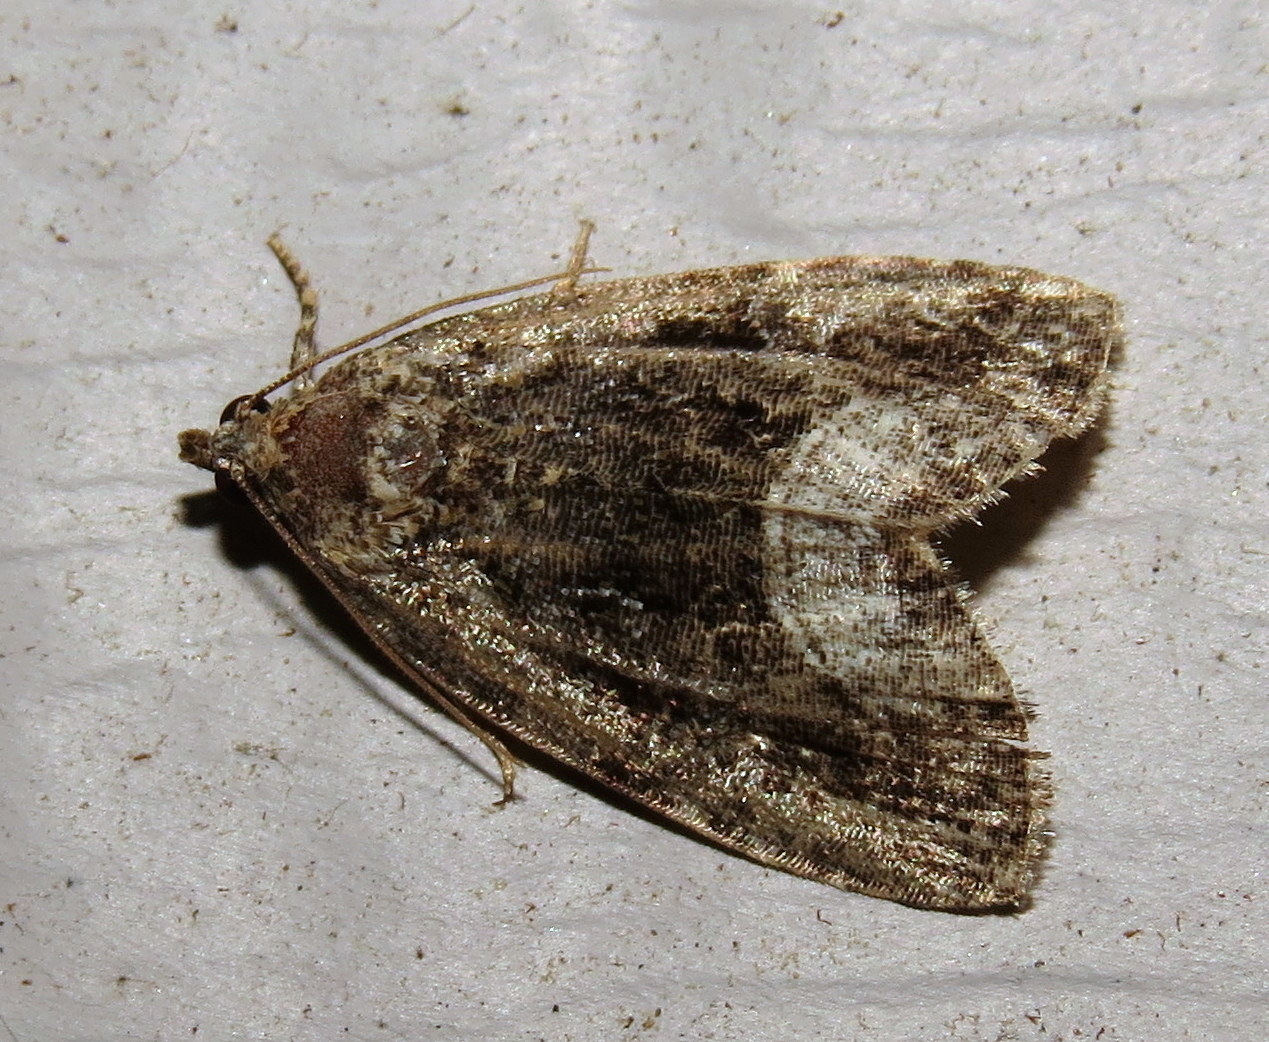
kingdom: Animalia
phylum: Arthropoda
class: Insecta
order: Lepidoptera
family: Noctuidae
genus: Protodeltote
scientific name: Protodeltote muscosula
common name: Large mossy glyph
